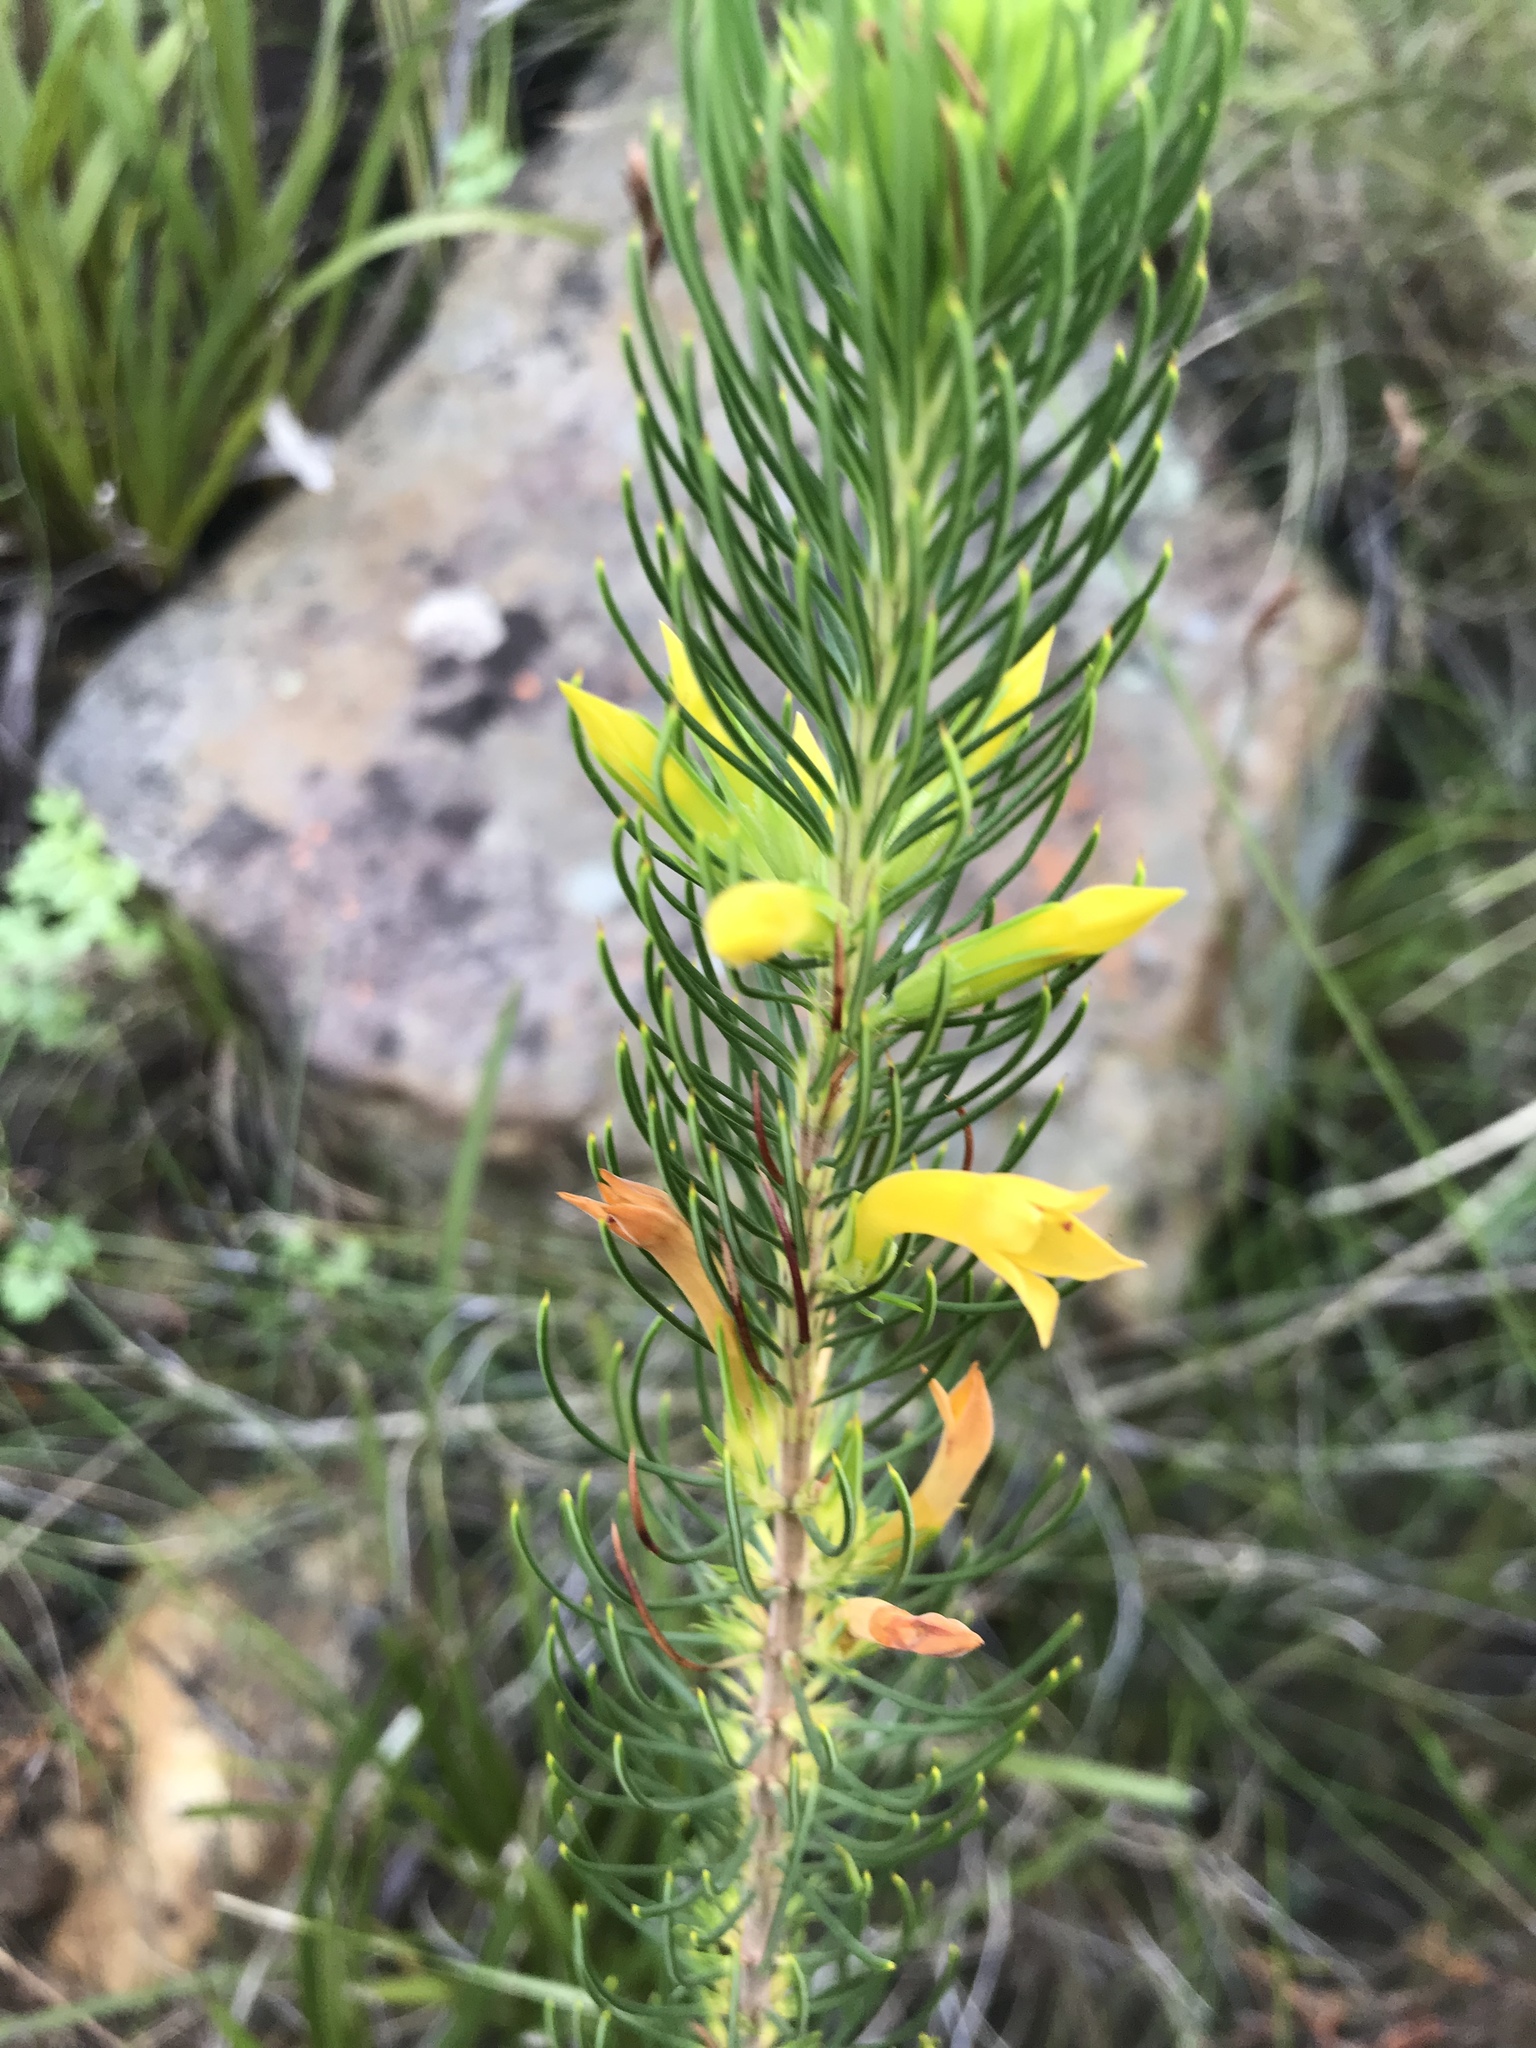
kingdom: Plantae
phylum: Tracheophyta
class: Magnoliopsida
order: Ericales
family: Ericaceae
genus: Erica
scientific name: Erica grandiflora
